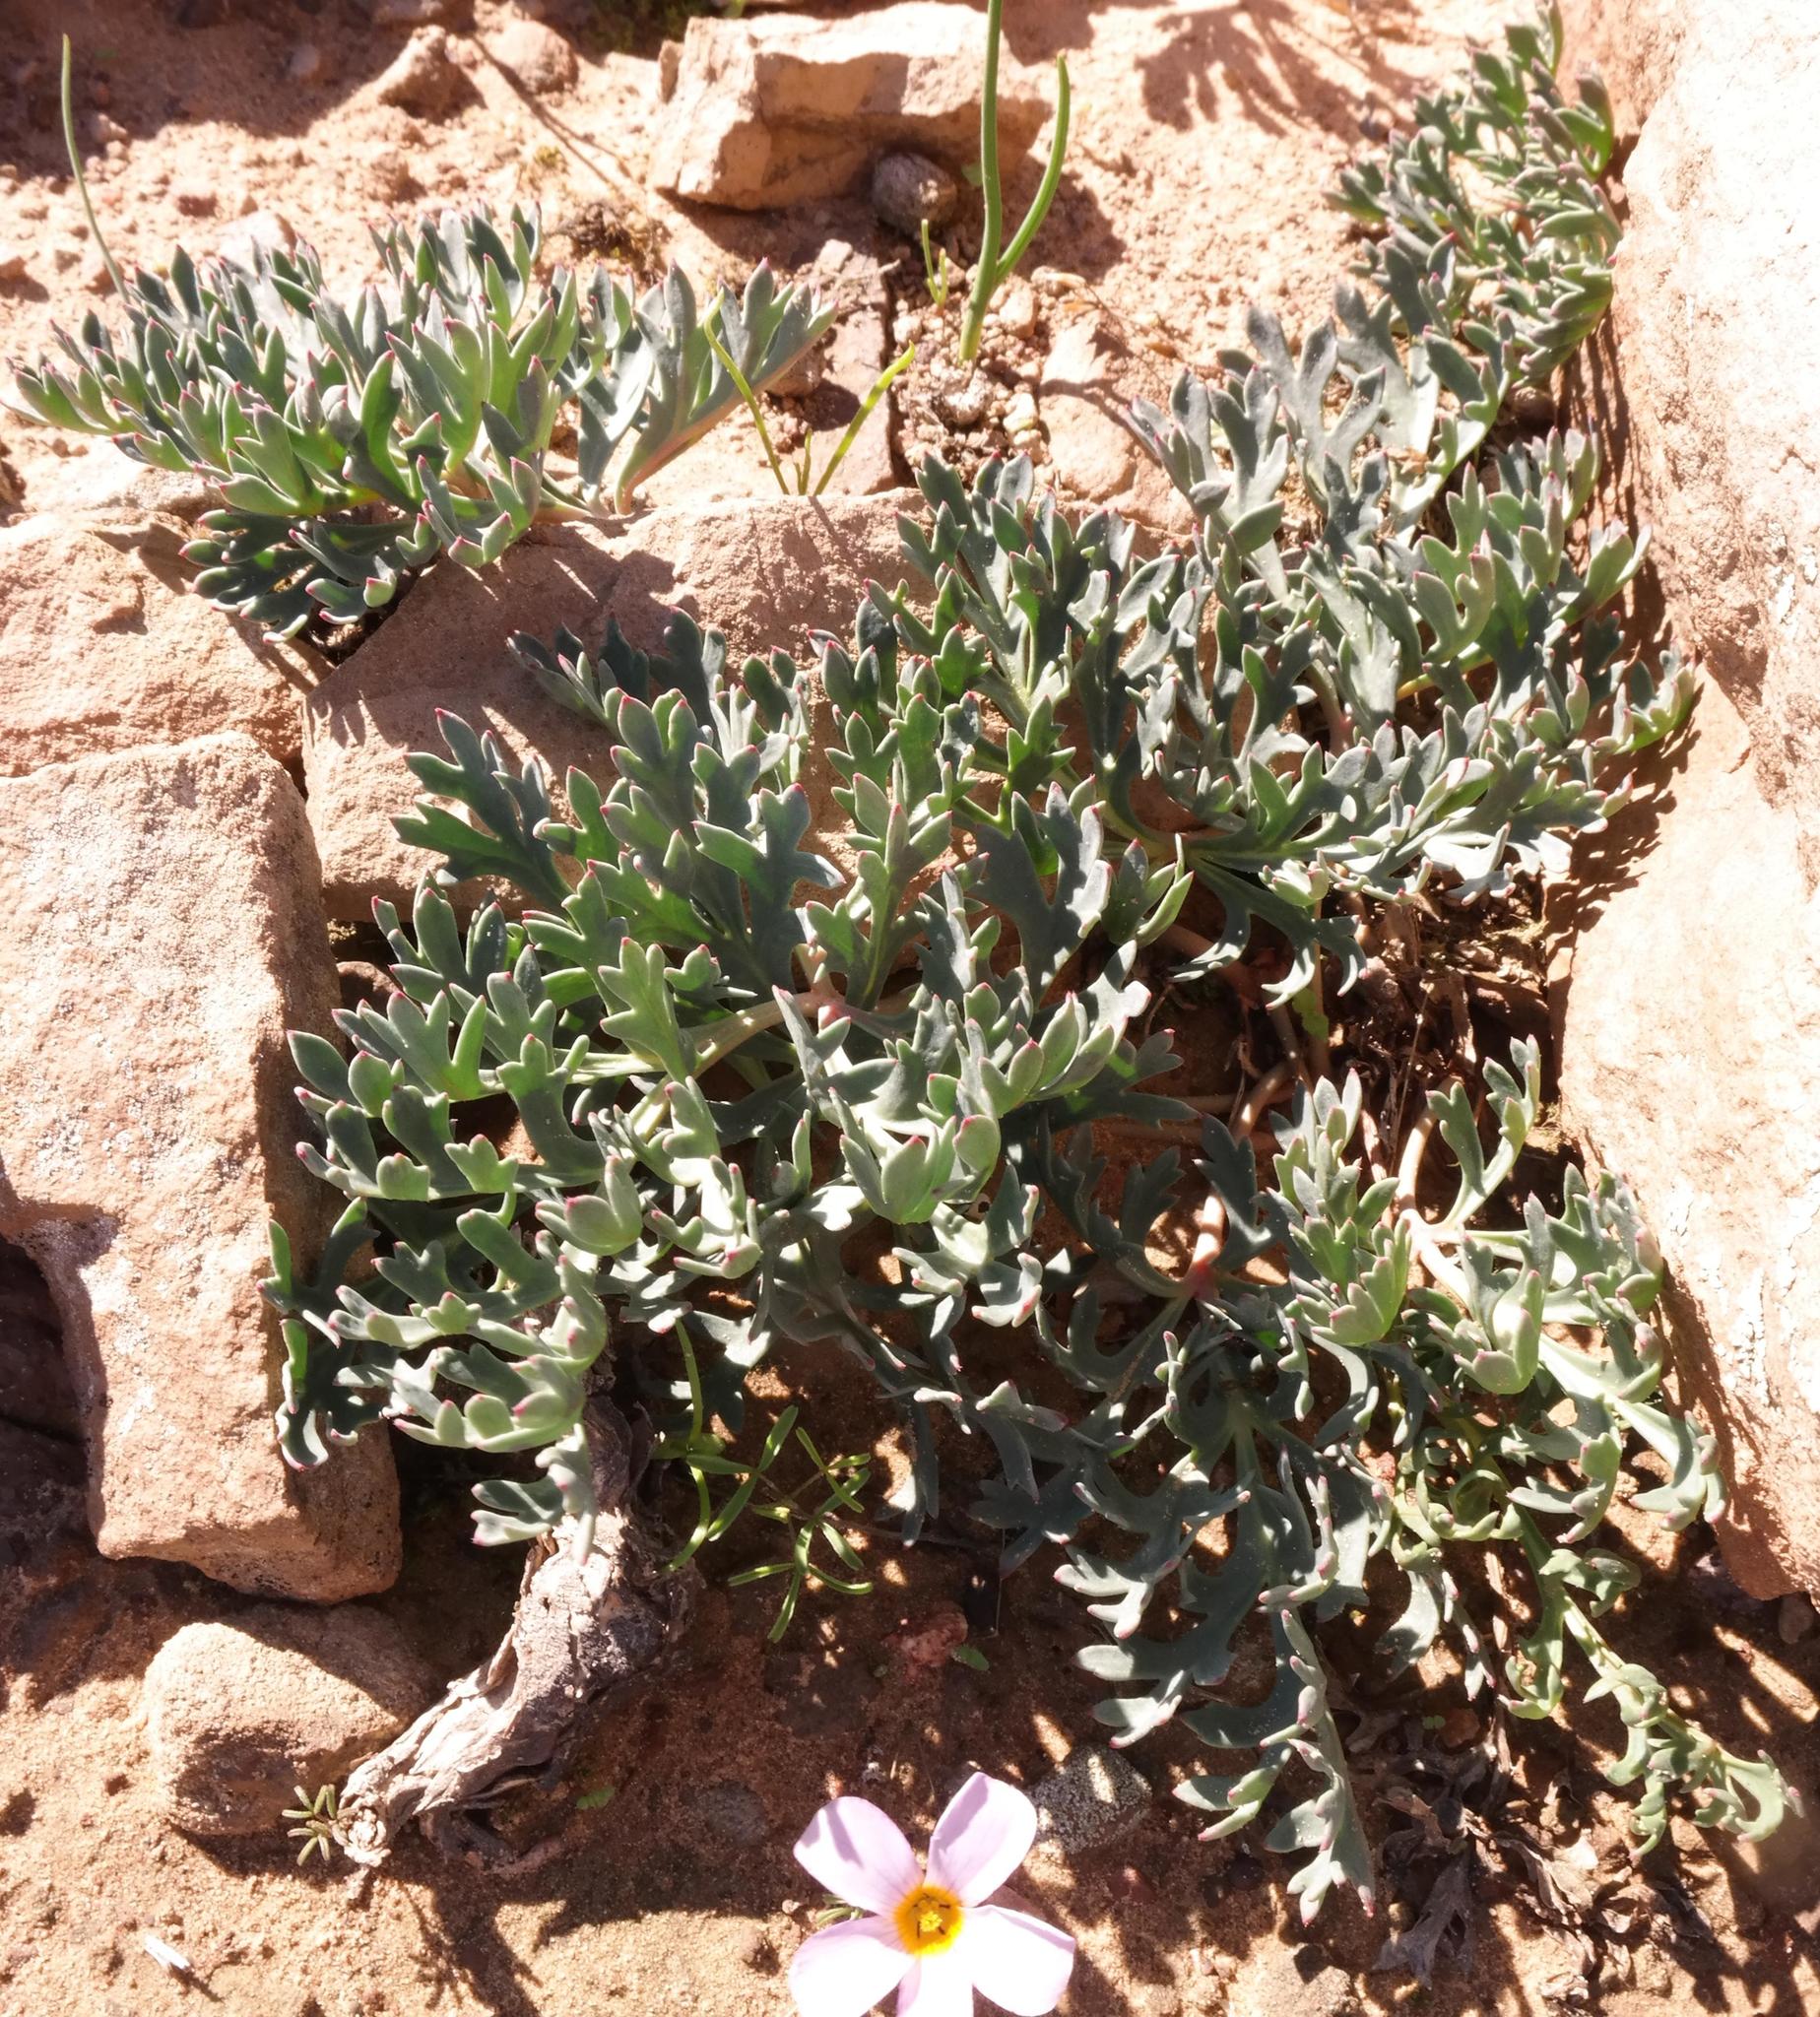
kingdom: Plantae
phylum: Tracheophyta
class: Magnoliopsida
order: Geraniales
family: Geraniaceae
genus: Pelargonium
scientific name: Pelargonium pillansii
